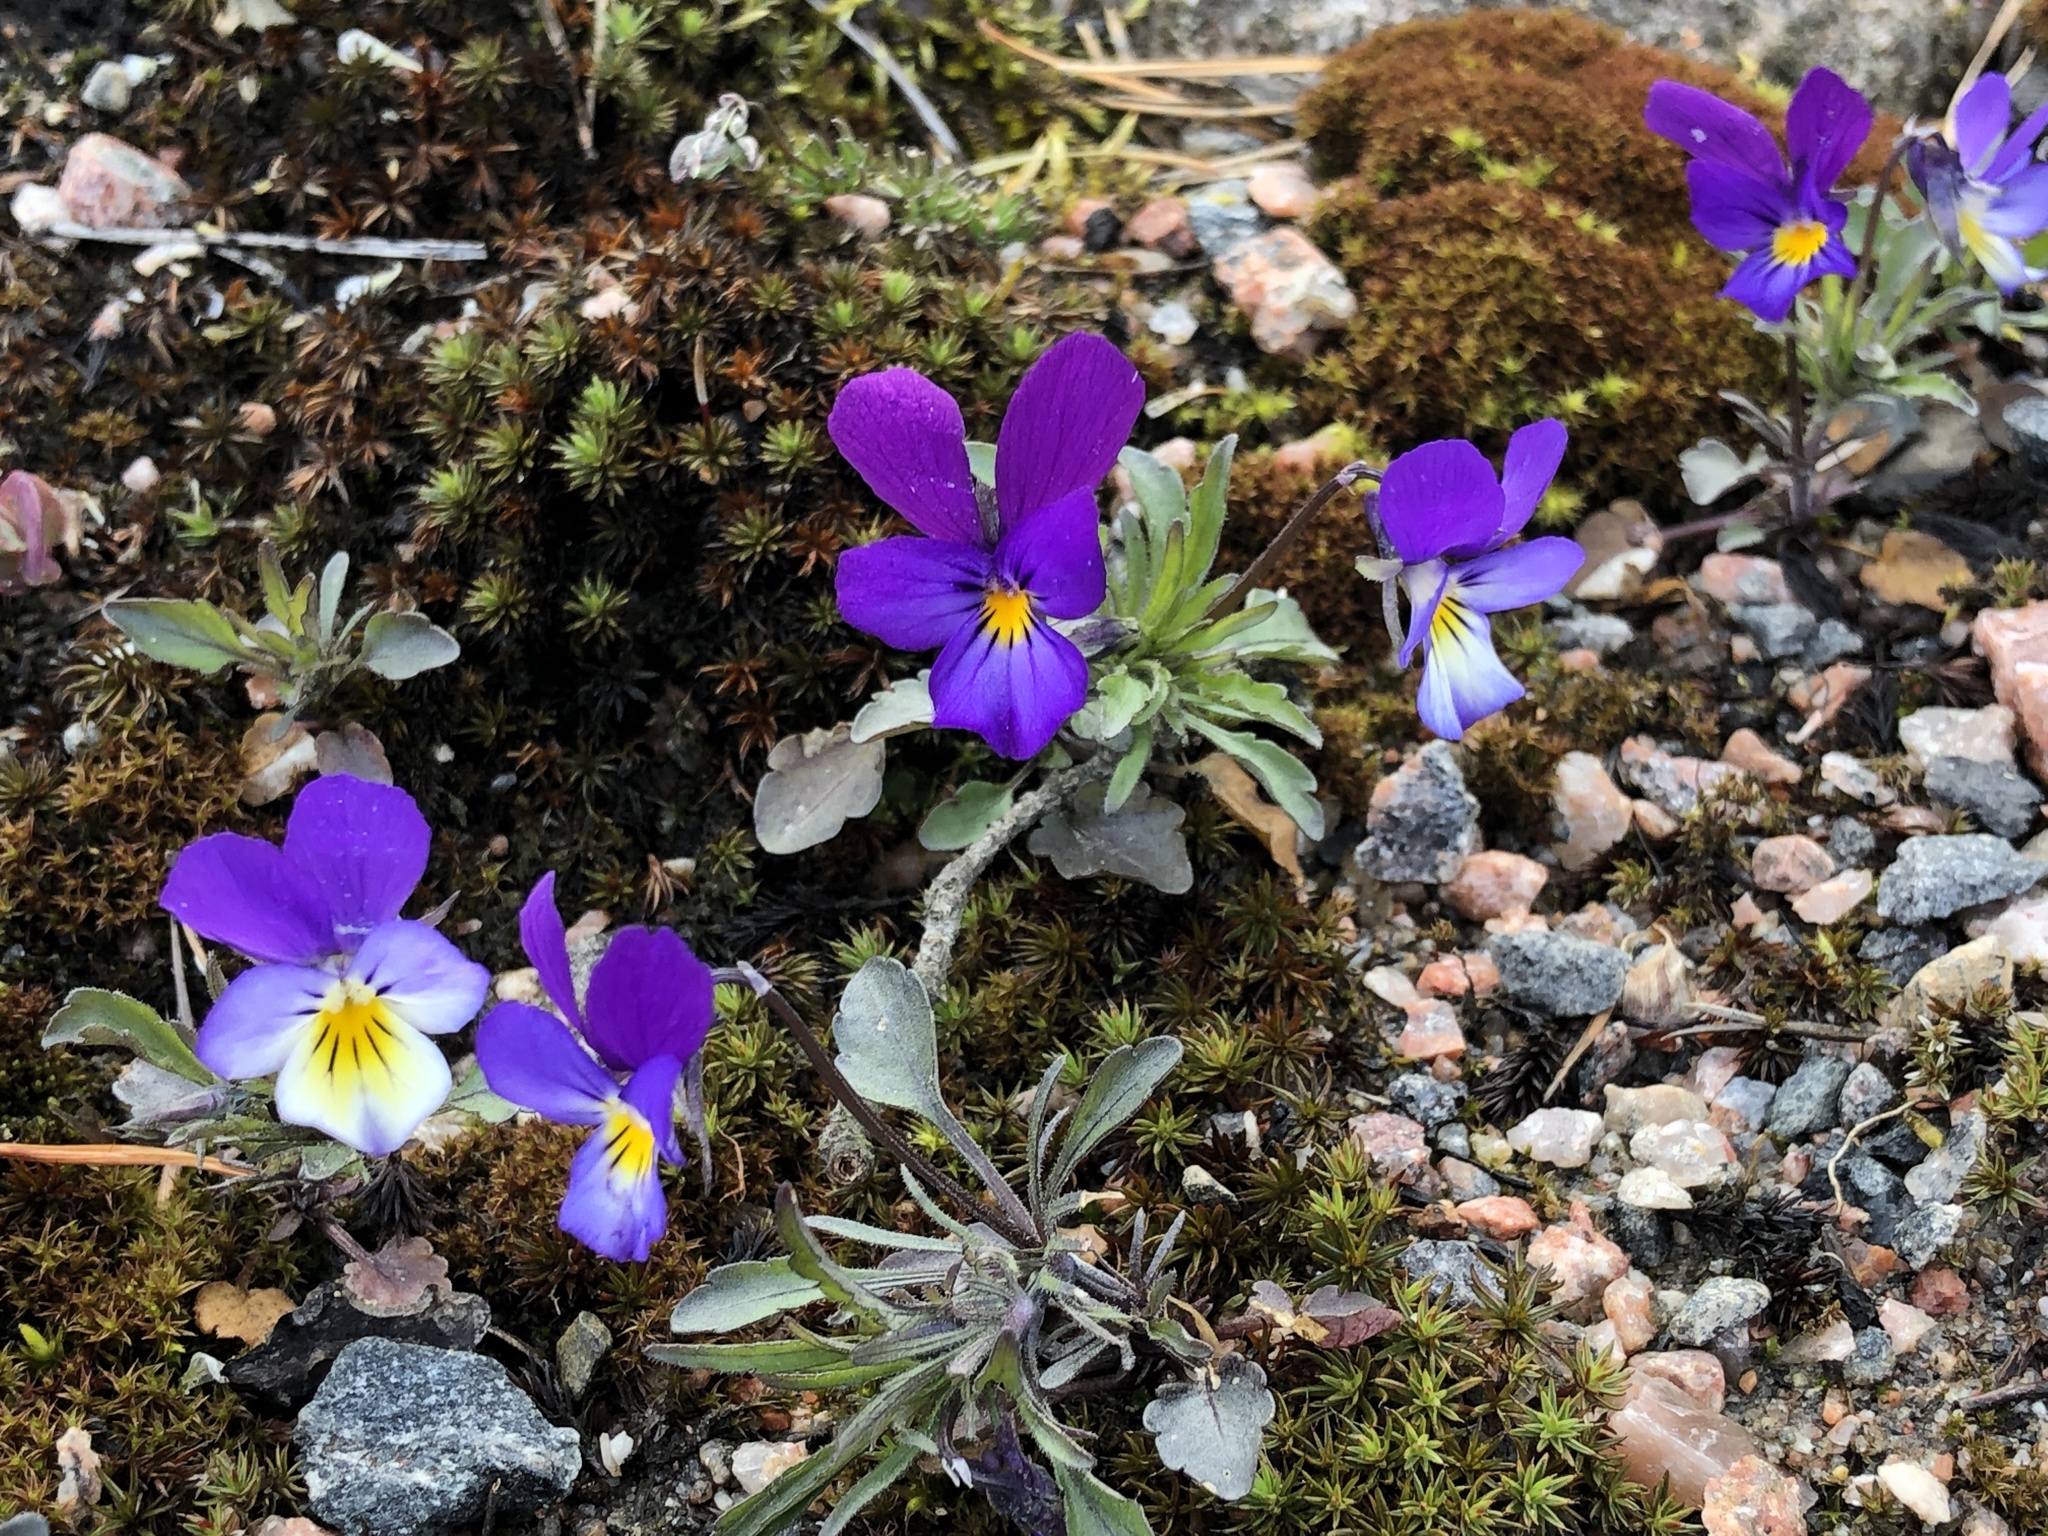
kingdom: Plantae
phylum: Tracheophyta
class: Magnoliopsida
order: Malpighiales
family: Violaceae
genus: Viola
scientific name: Viola tricolor
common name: Pansy
